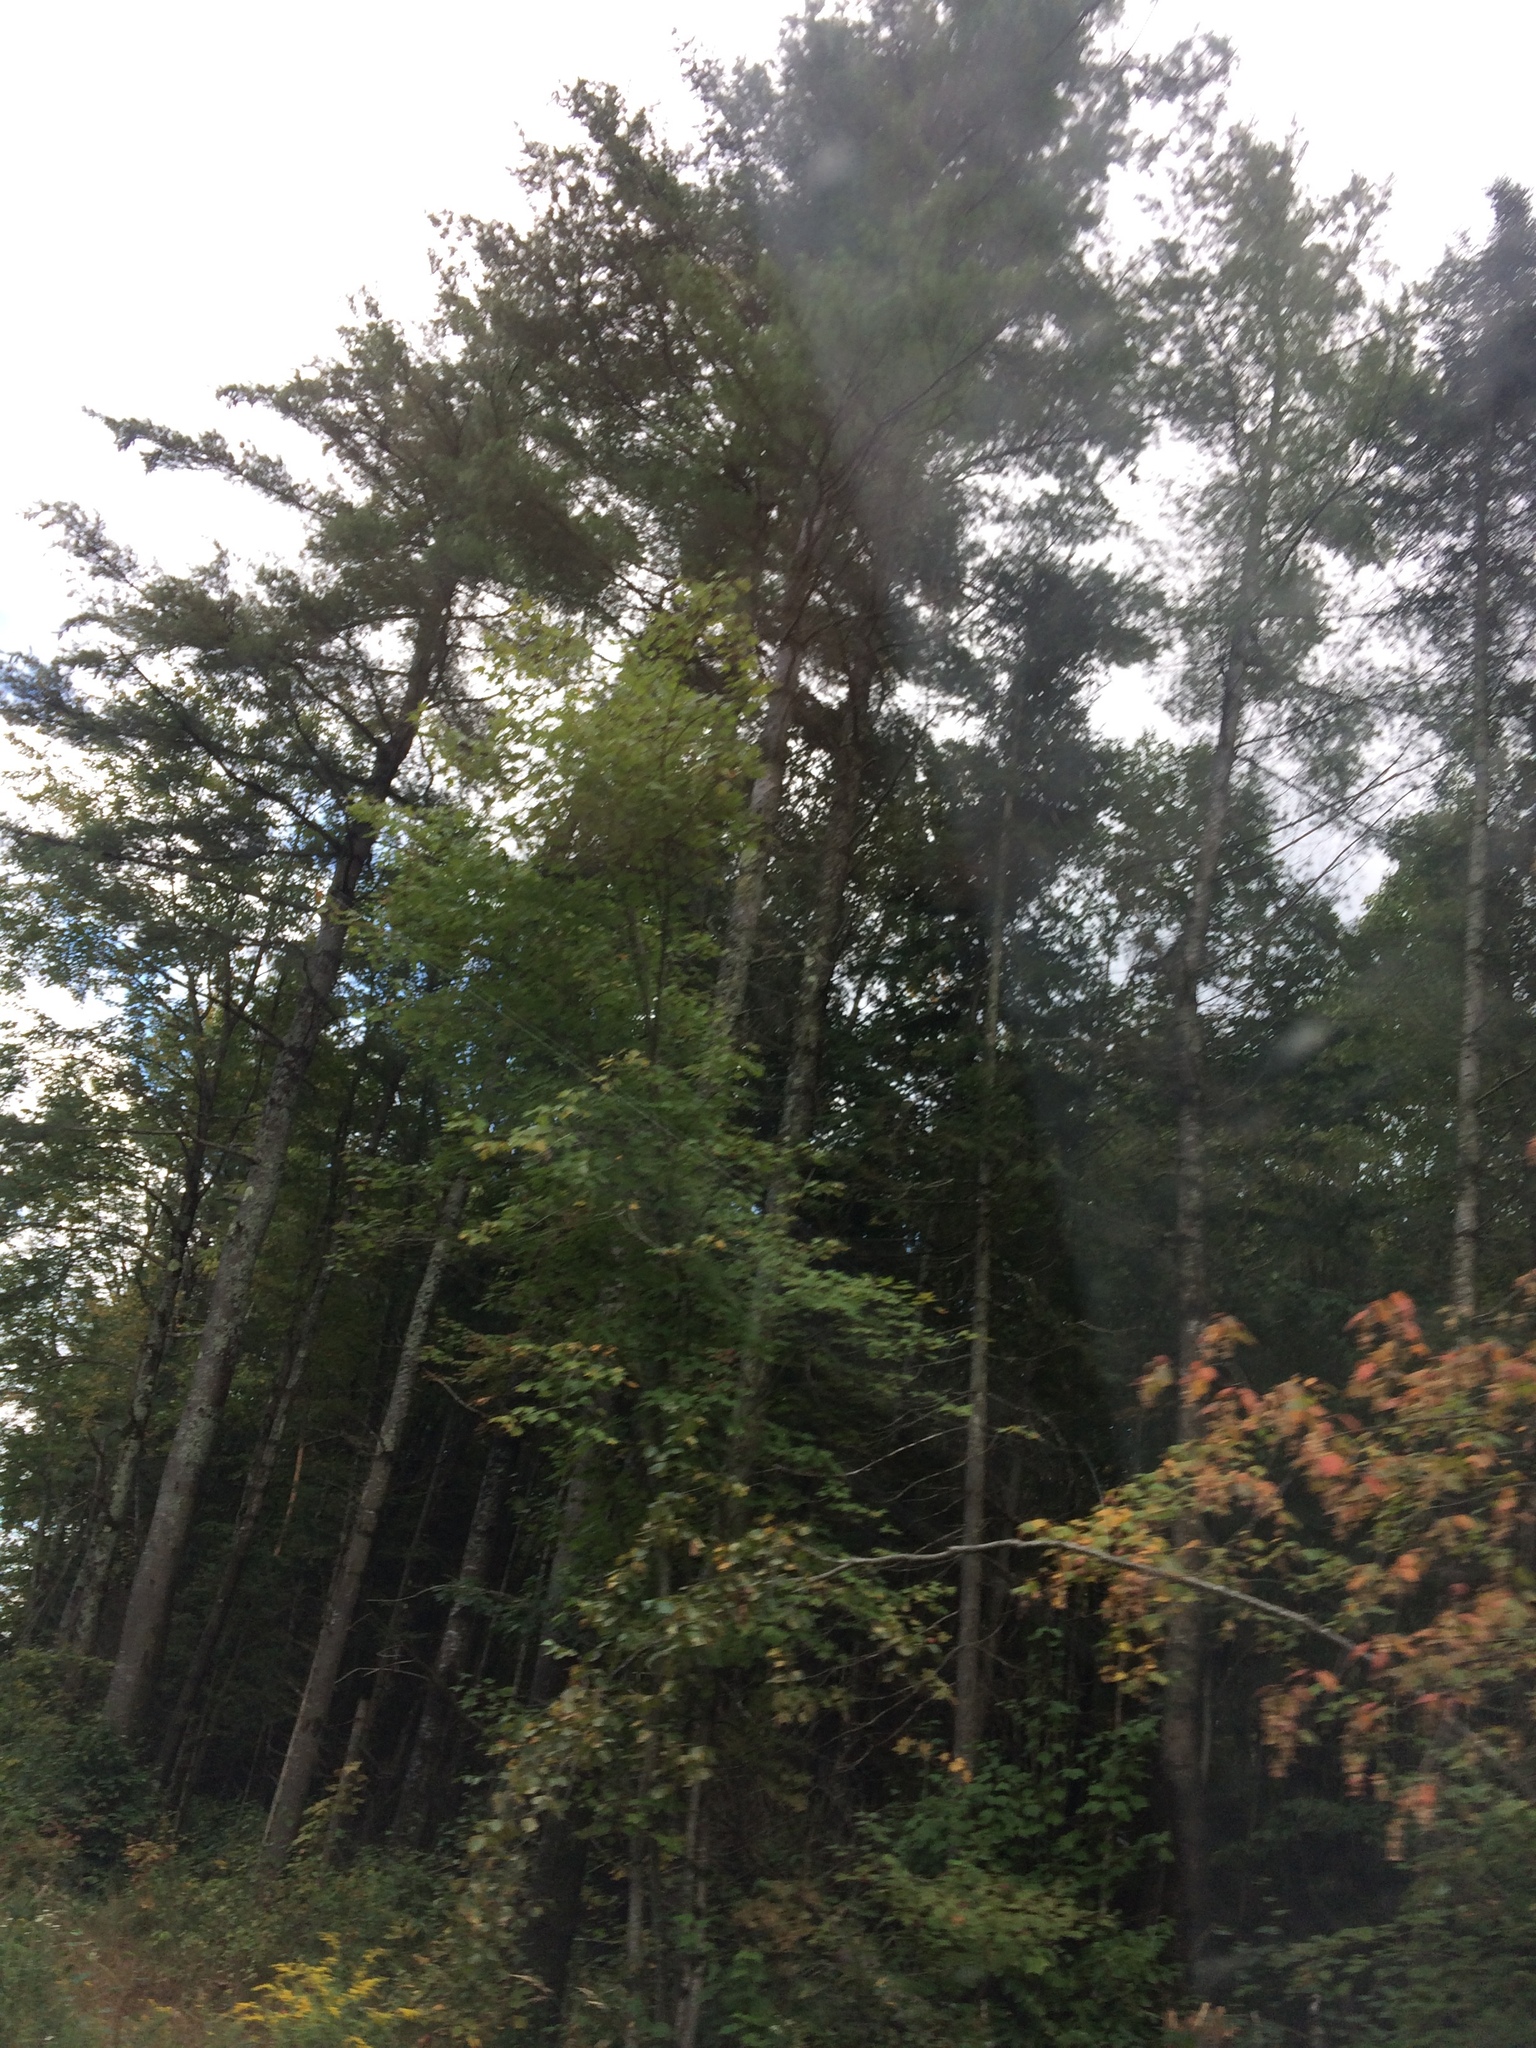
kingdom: Plantae
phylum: Tracheophyta
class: Pinopsida
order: Pinales
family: Pinaceae
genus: Pinus
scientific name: Pinus strobus
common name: Weymouth pine
